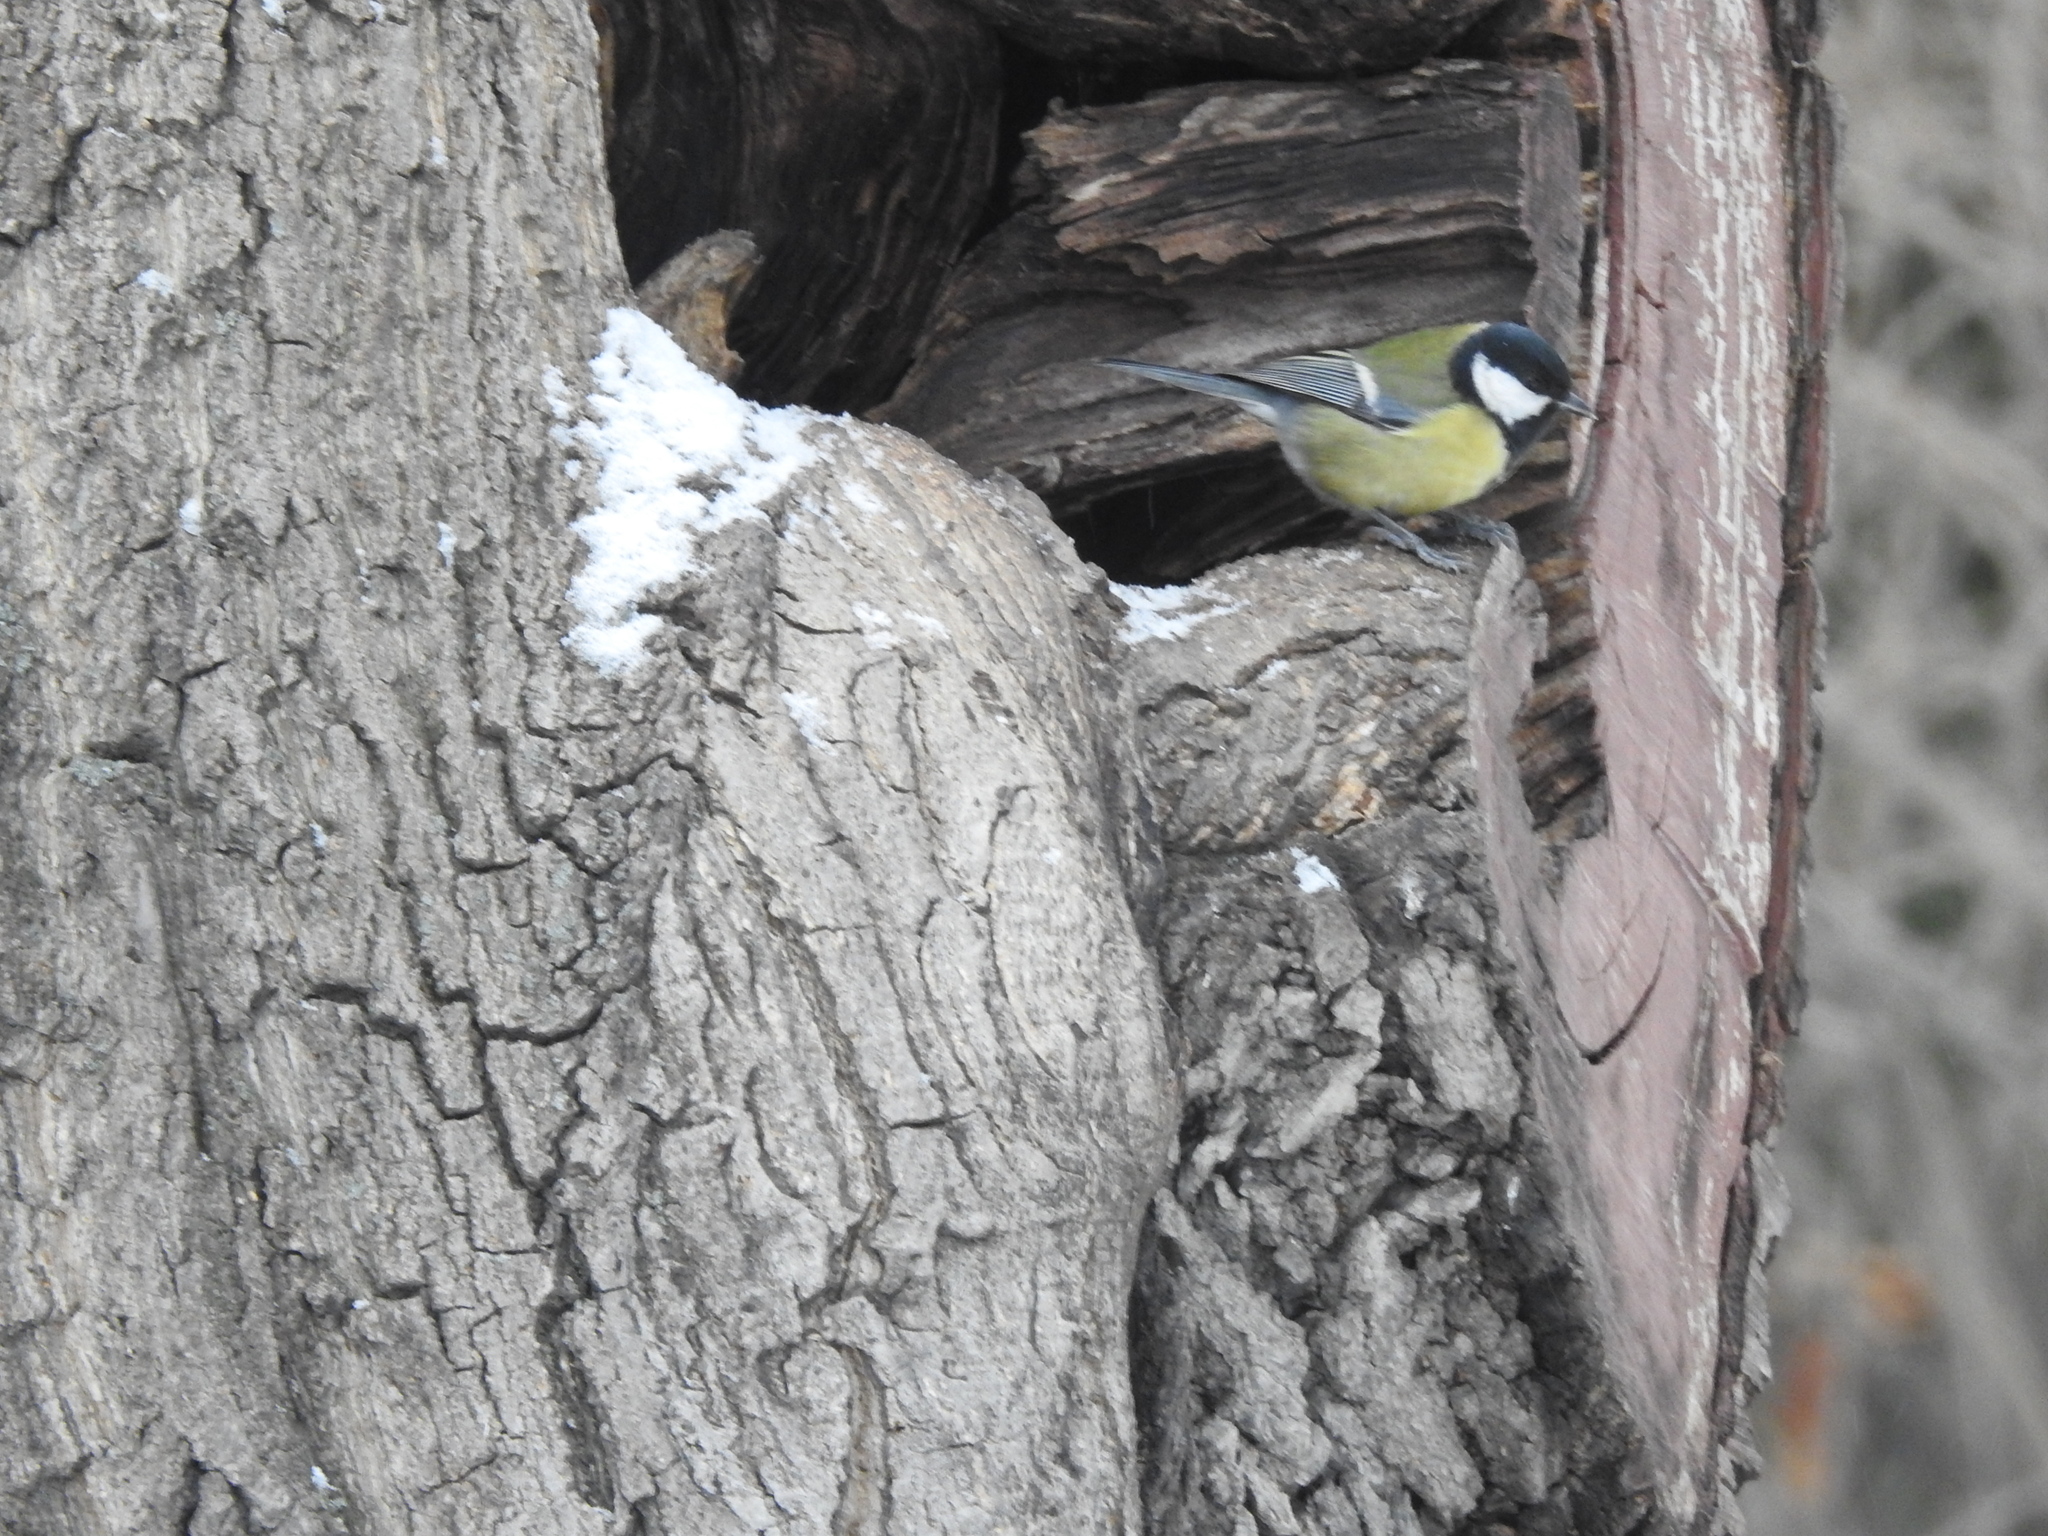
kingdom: Animalia
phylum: Chordata
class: Aves
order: Passeriformes
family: Paridae
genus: Parus
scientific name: Parus major
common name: Great tit
